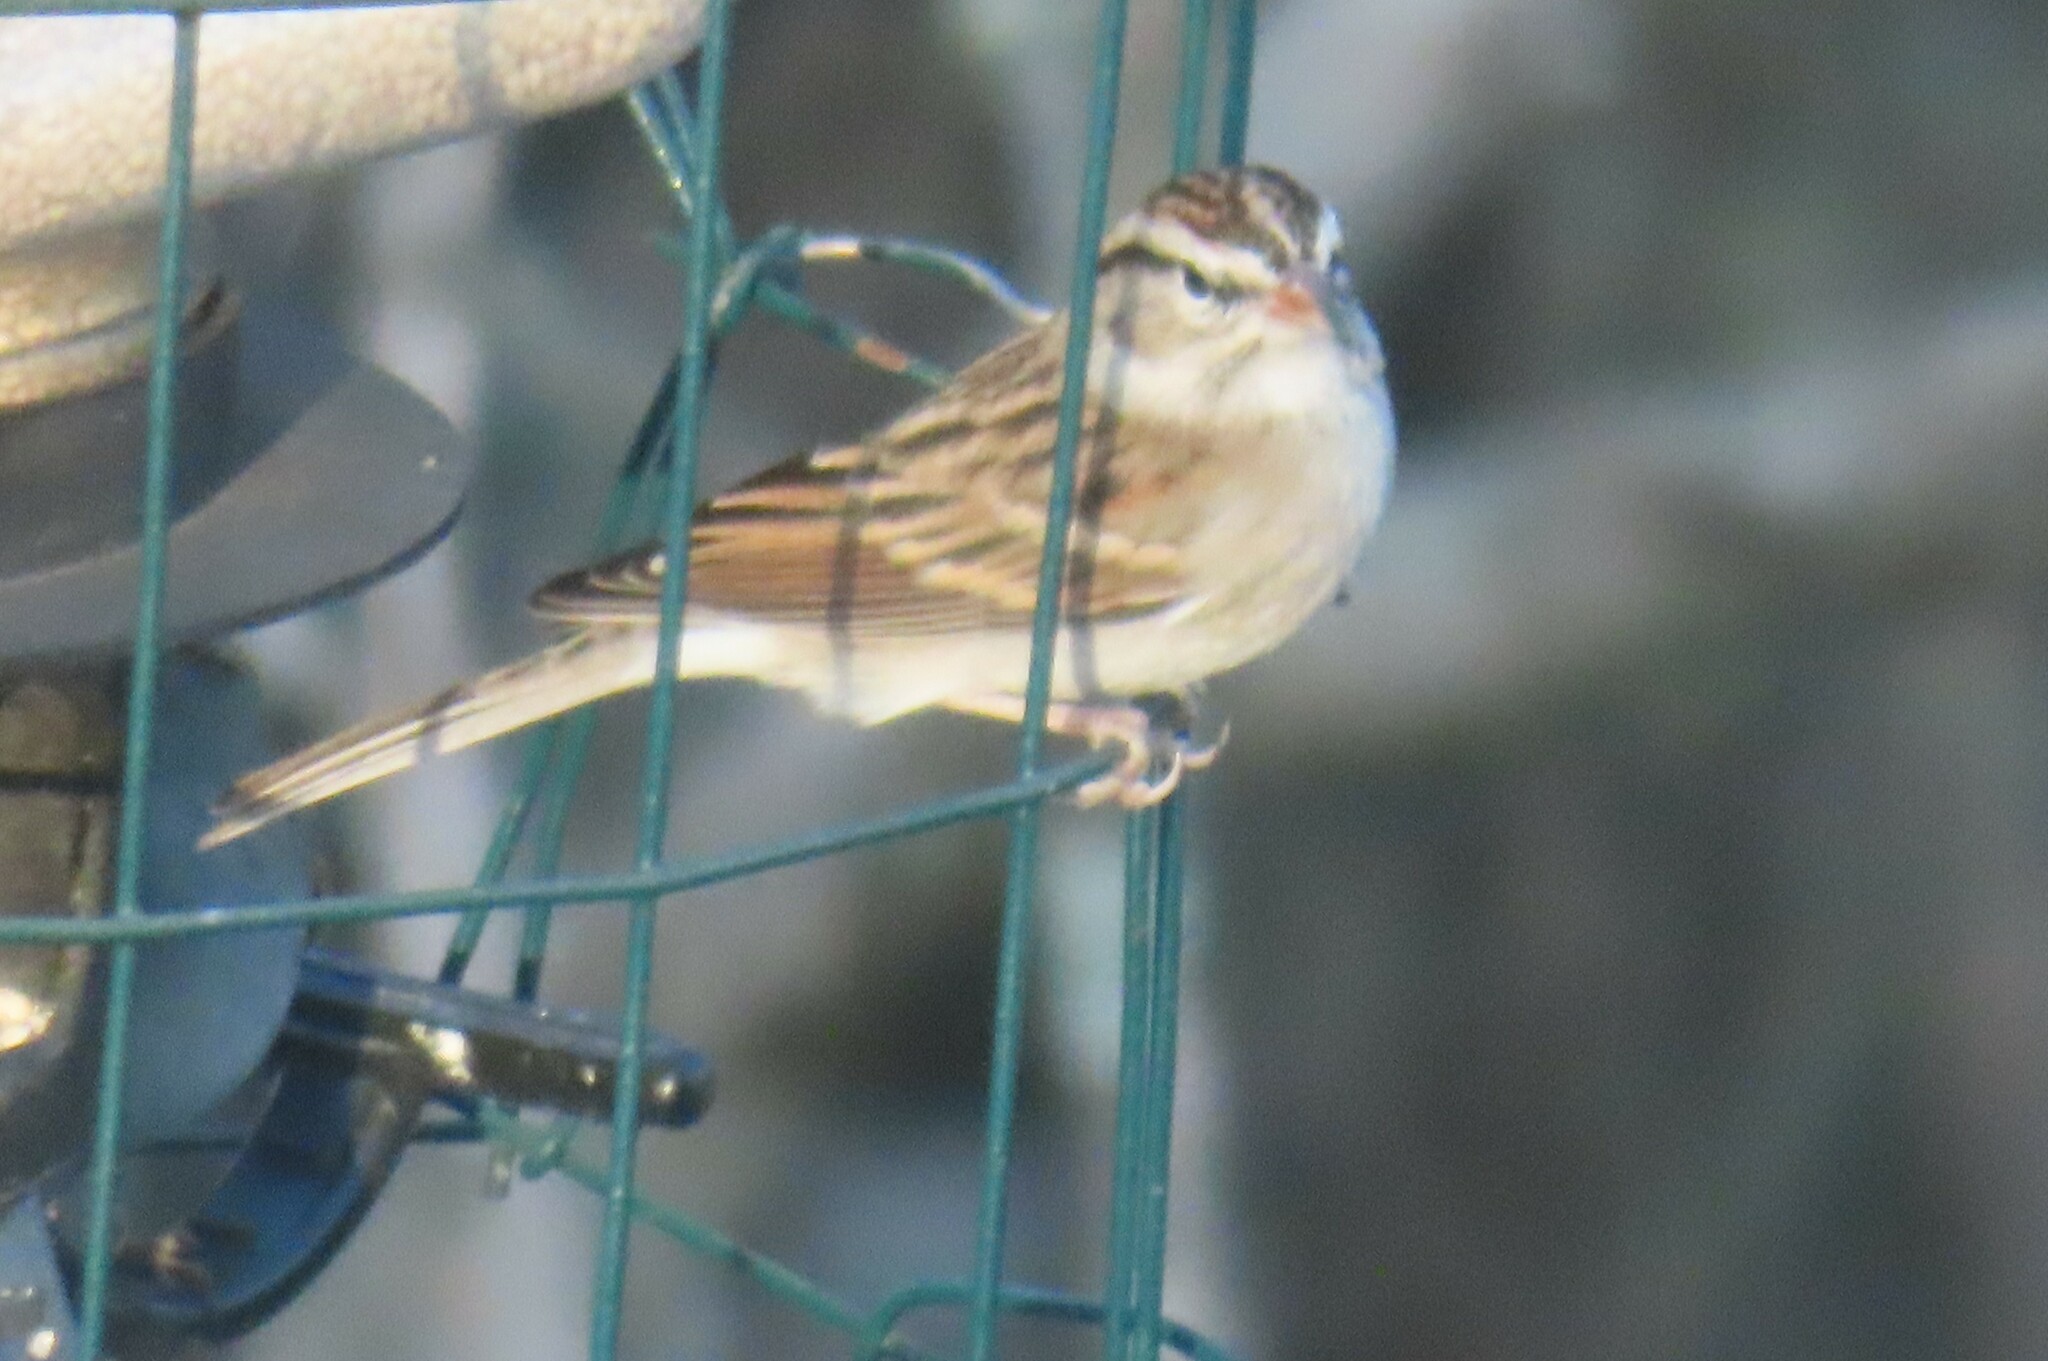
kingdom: Animalia
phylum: Chordata
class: Aves
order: Passeriformes
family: Passerellidae
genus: Spizella
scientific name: Spizella passerina
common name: Chipping sparrow
